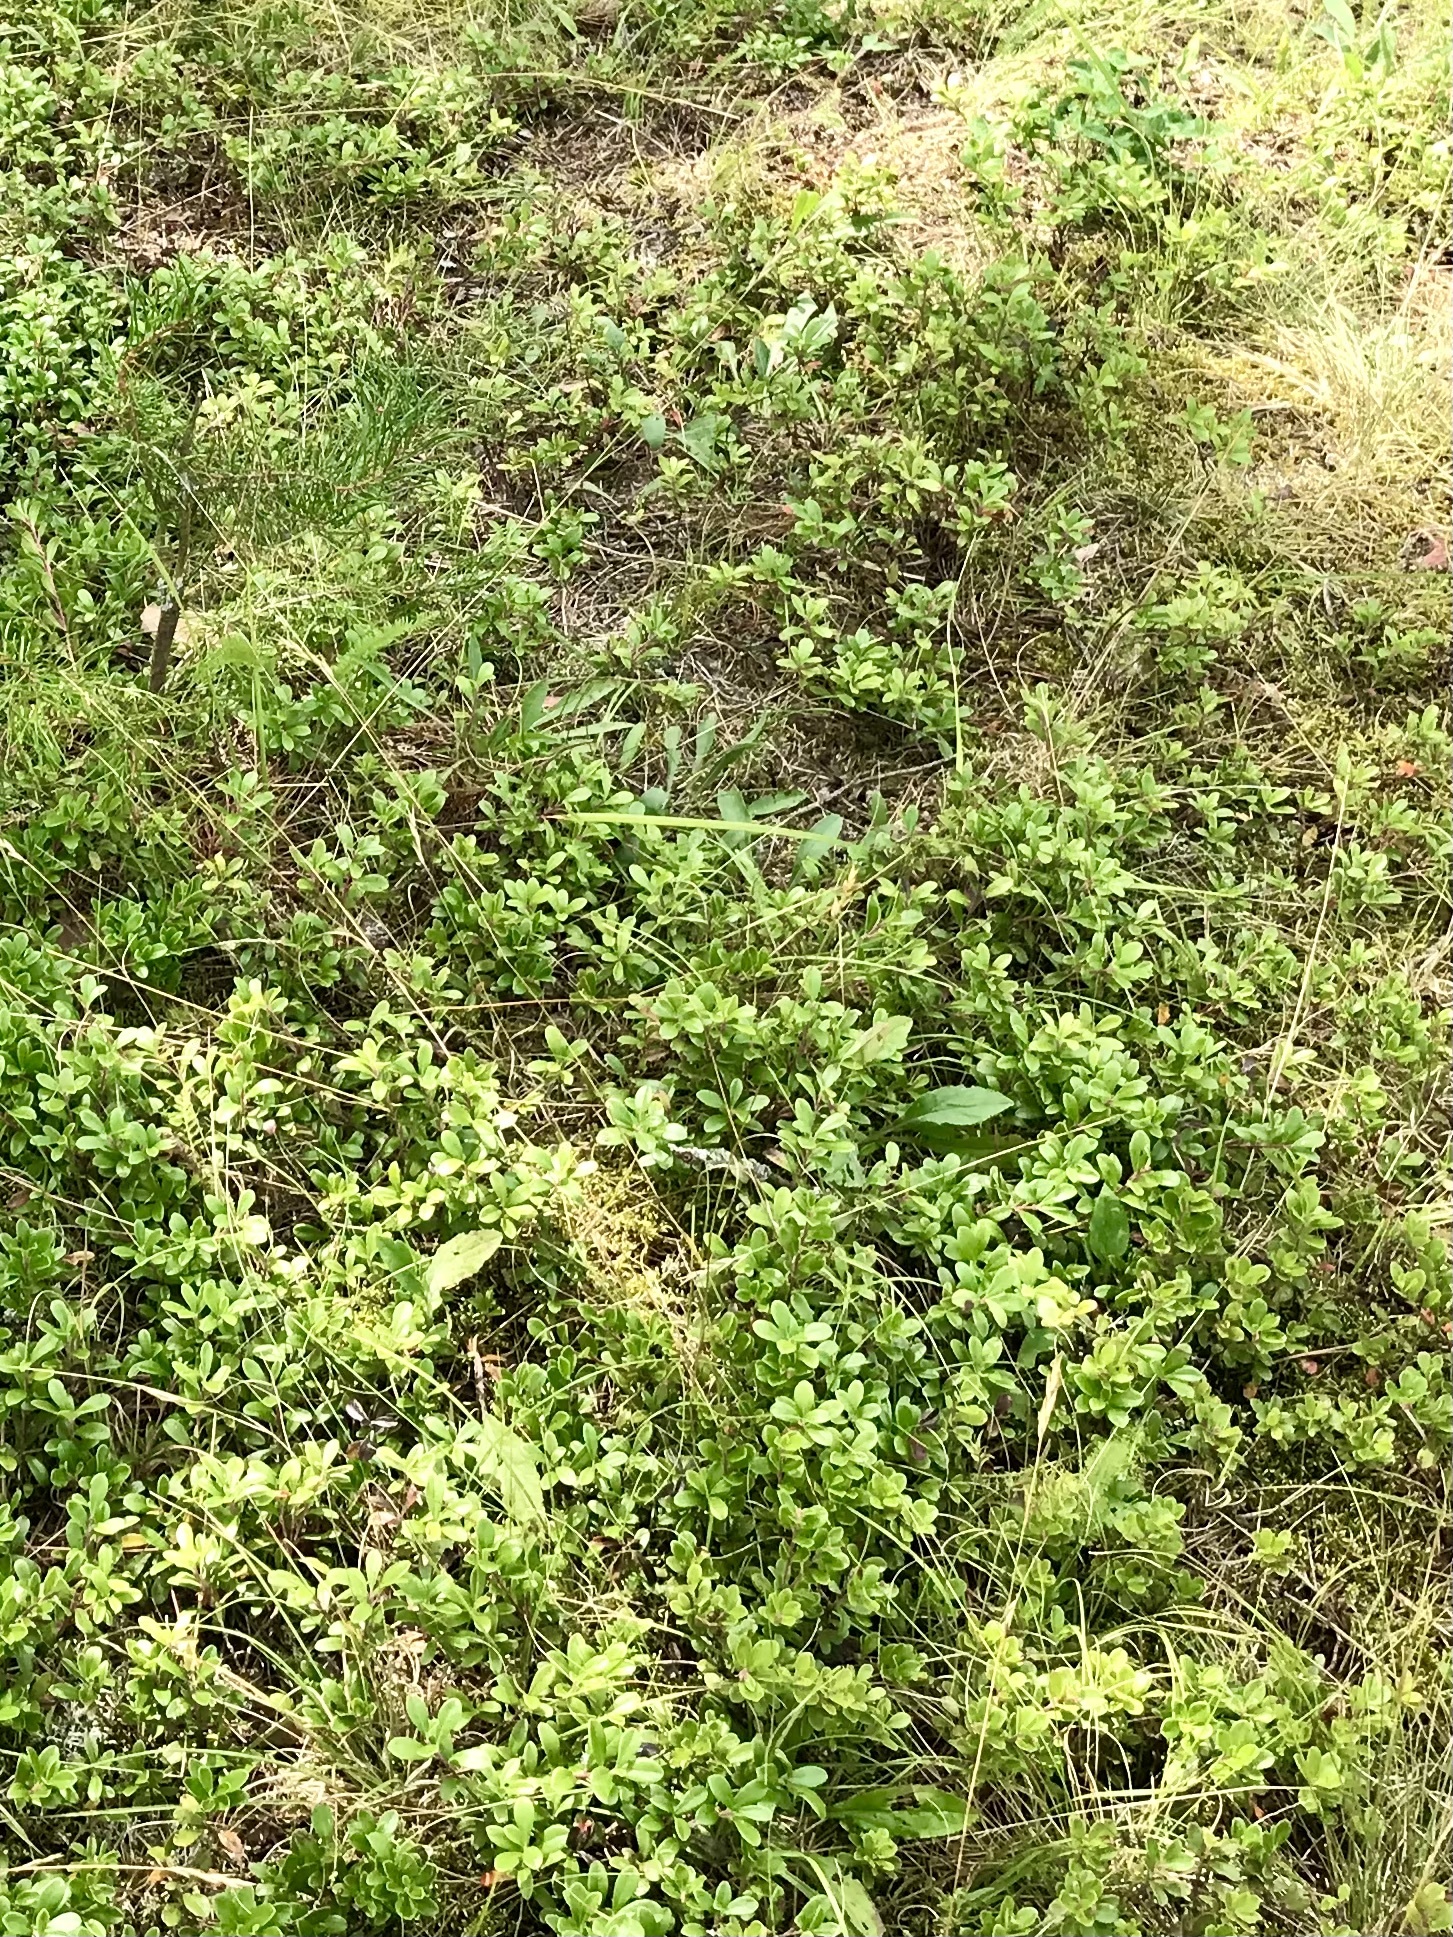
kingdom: Plantae
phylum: Tracheophyta
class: Magnoliopsida
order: Ericales
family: Ericaceae
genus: Arctostaphylos
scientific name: Arctostaphylos uva-ursi
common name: Bearberry
